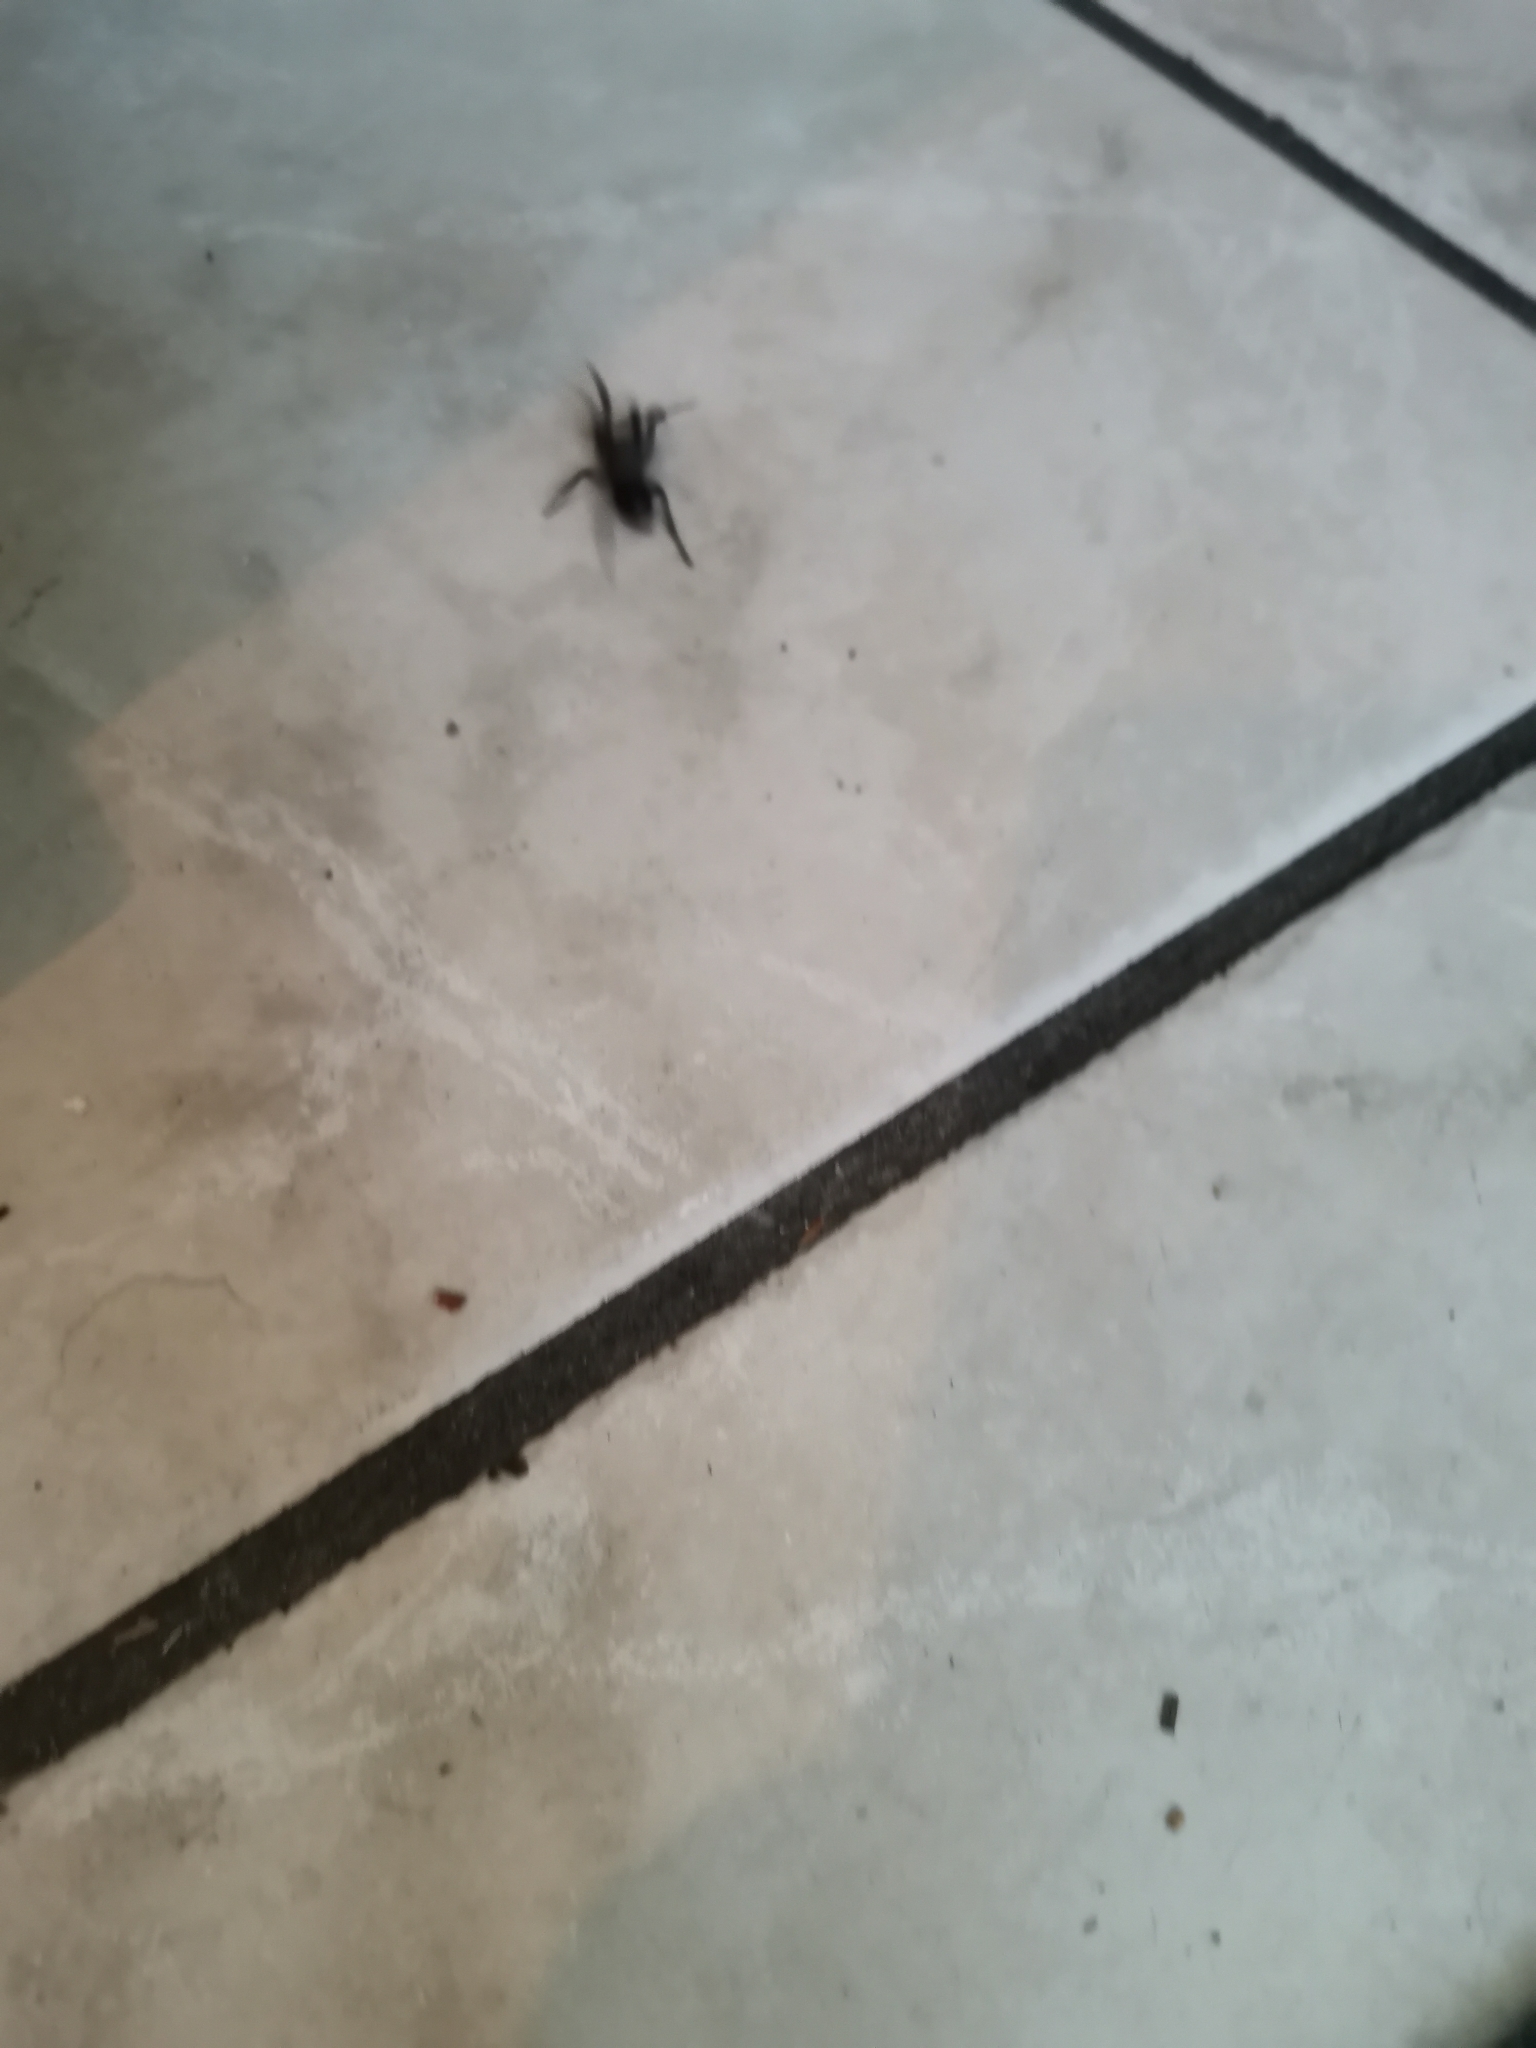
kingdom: Animalia
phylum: Arthropoda
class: Arachnida
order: Araneae
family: Lamponidae
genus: Lampona
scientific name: Lampona cylindrata
